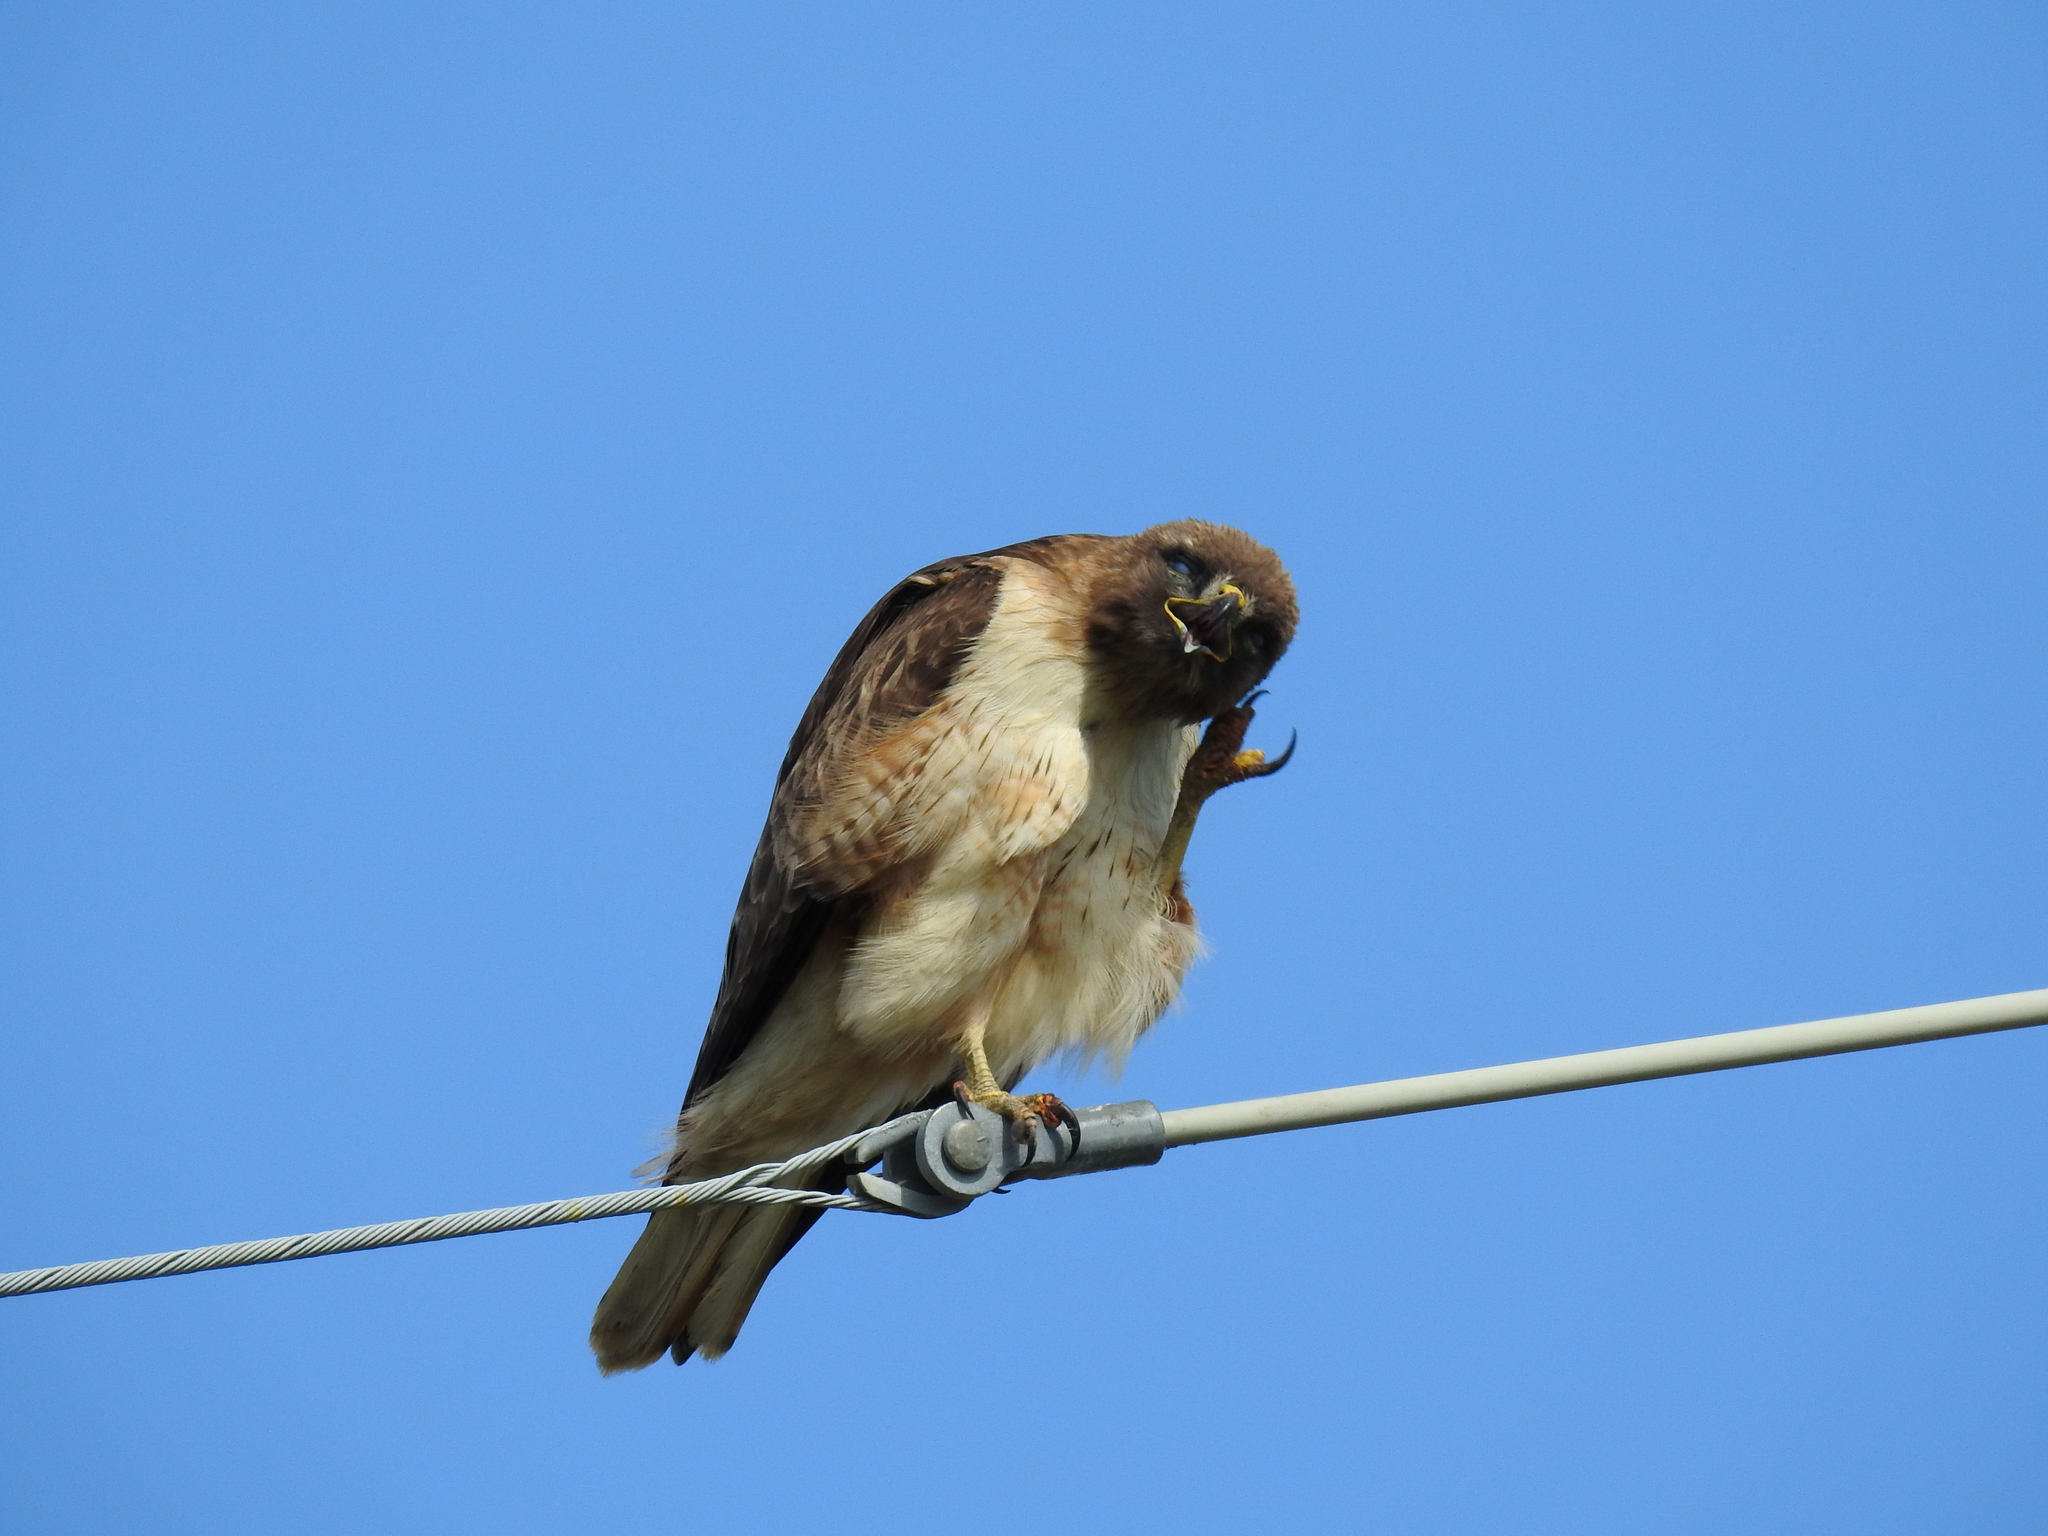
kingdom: Animalia
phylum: Chordata
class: Aves
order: Accipitriformes
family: Accipitridae
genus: Buteo
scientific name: Buteo jamaicensis
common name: Red-tailed hawk
